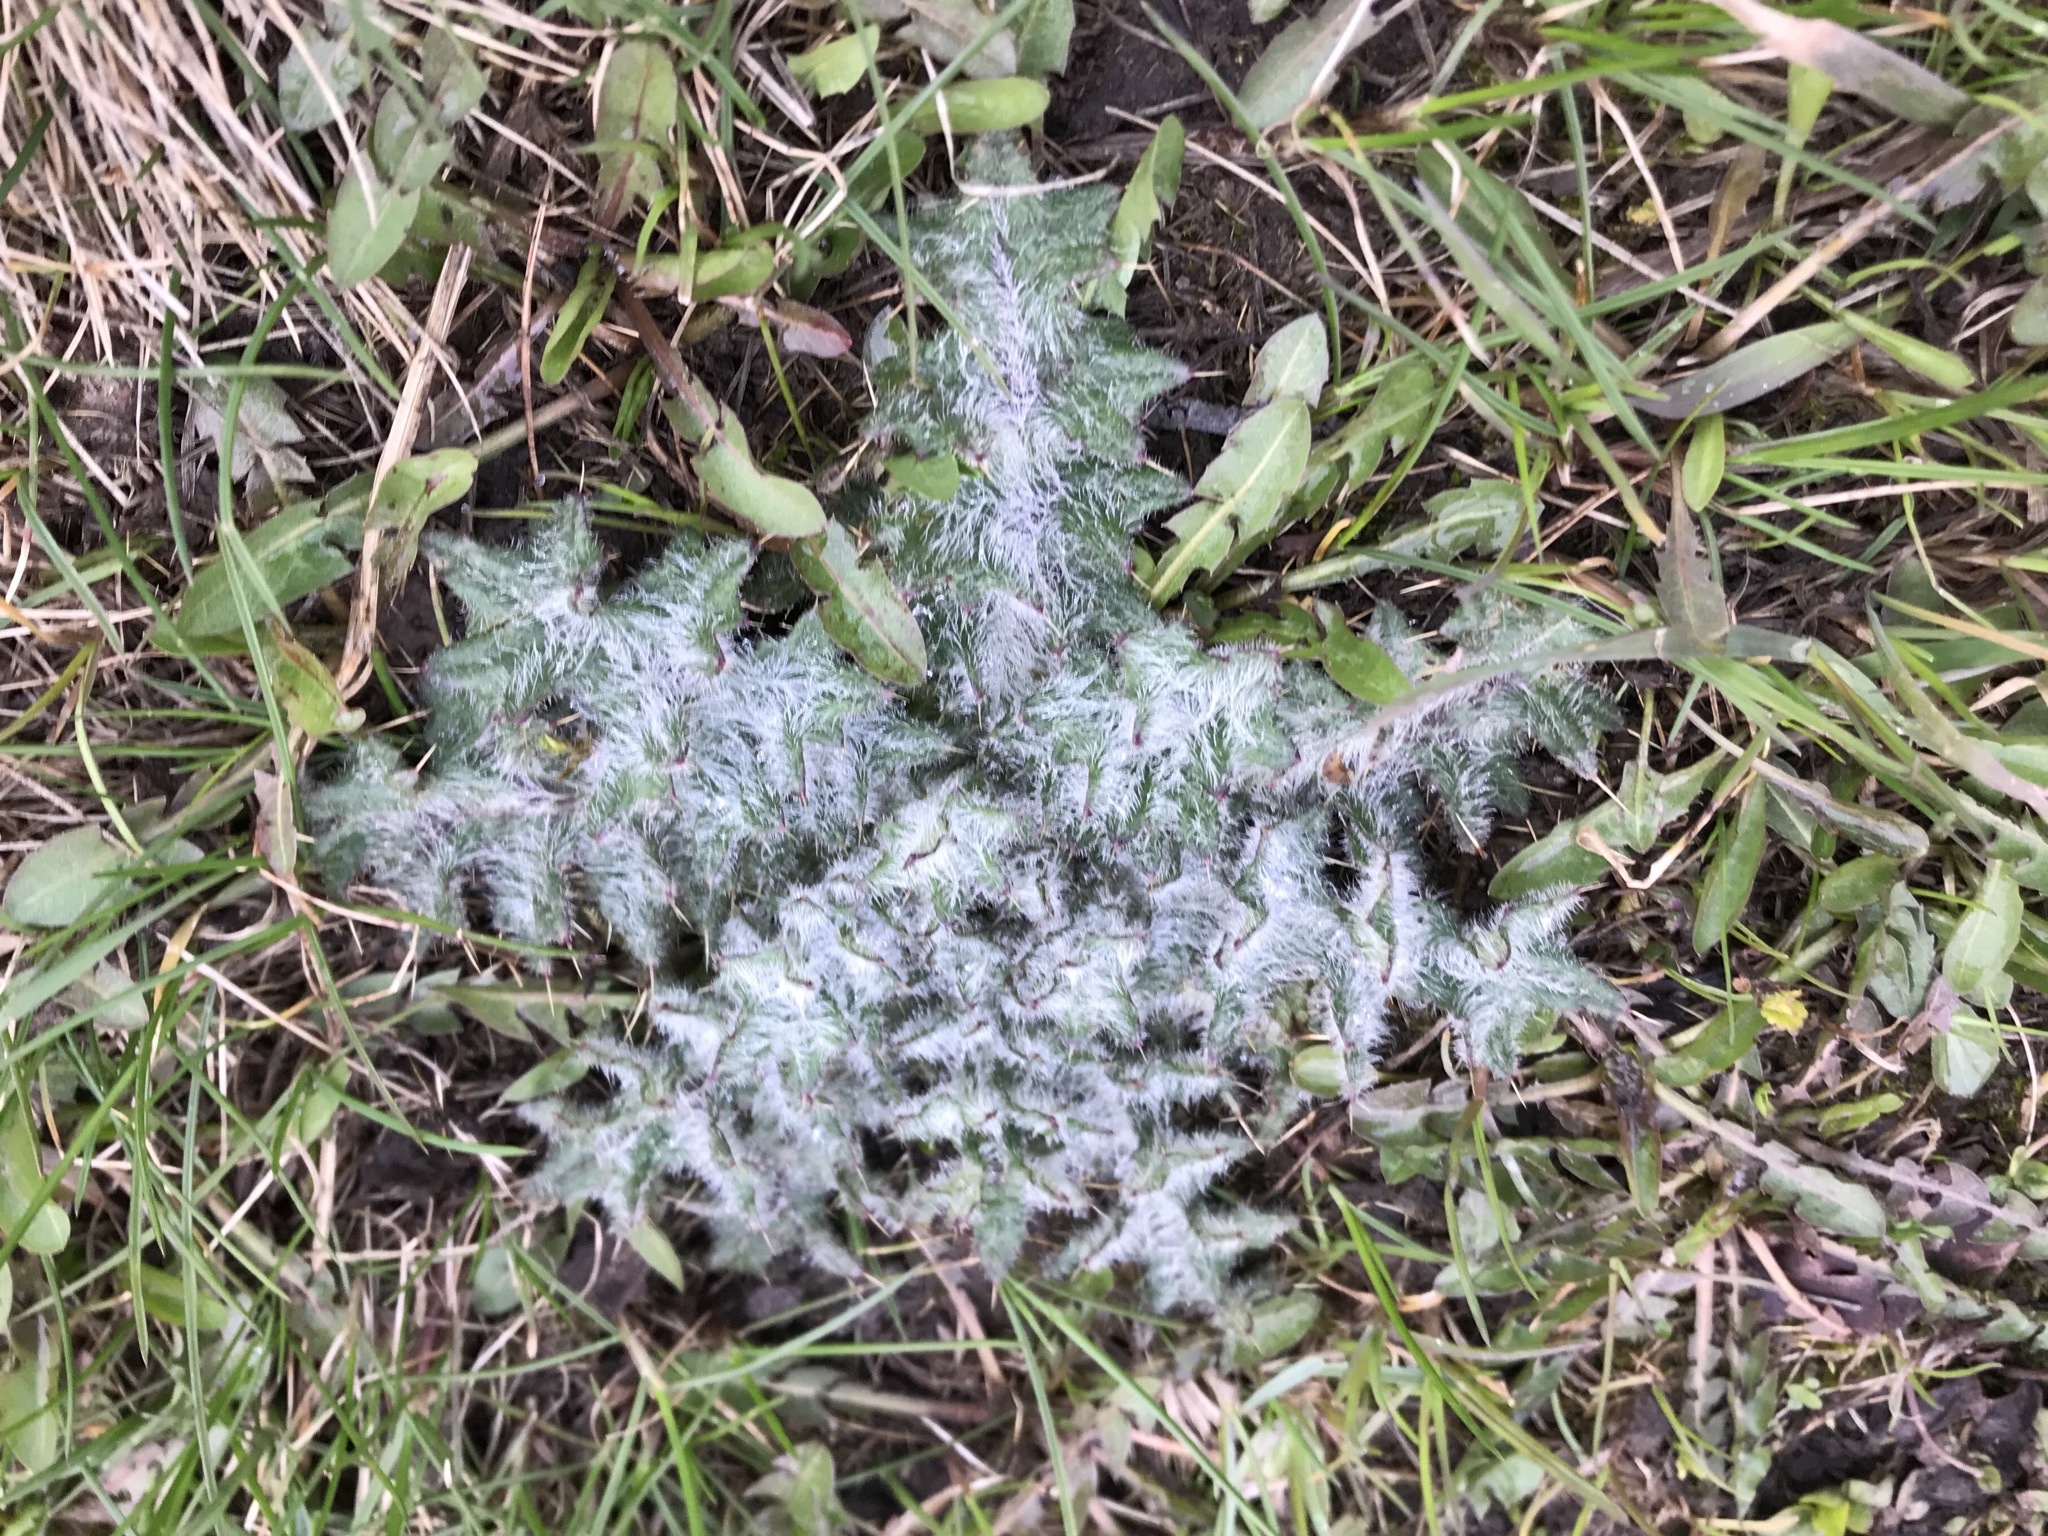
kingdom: Plantae
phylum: Tracheophyta
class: Magnoliopsida
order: Asterales
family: Asteraceae
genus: Cirsium
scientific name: Cirsium vulgare
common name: Bull thistle
